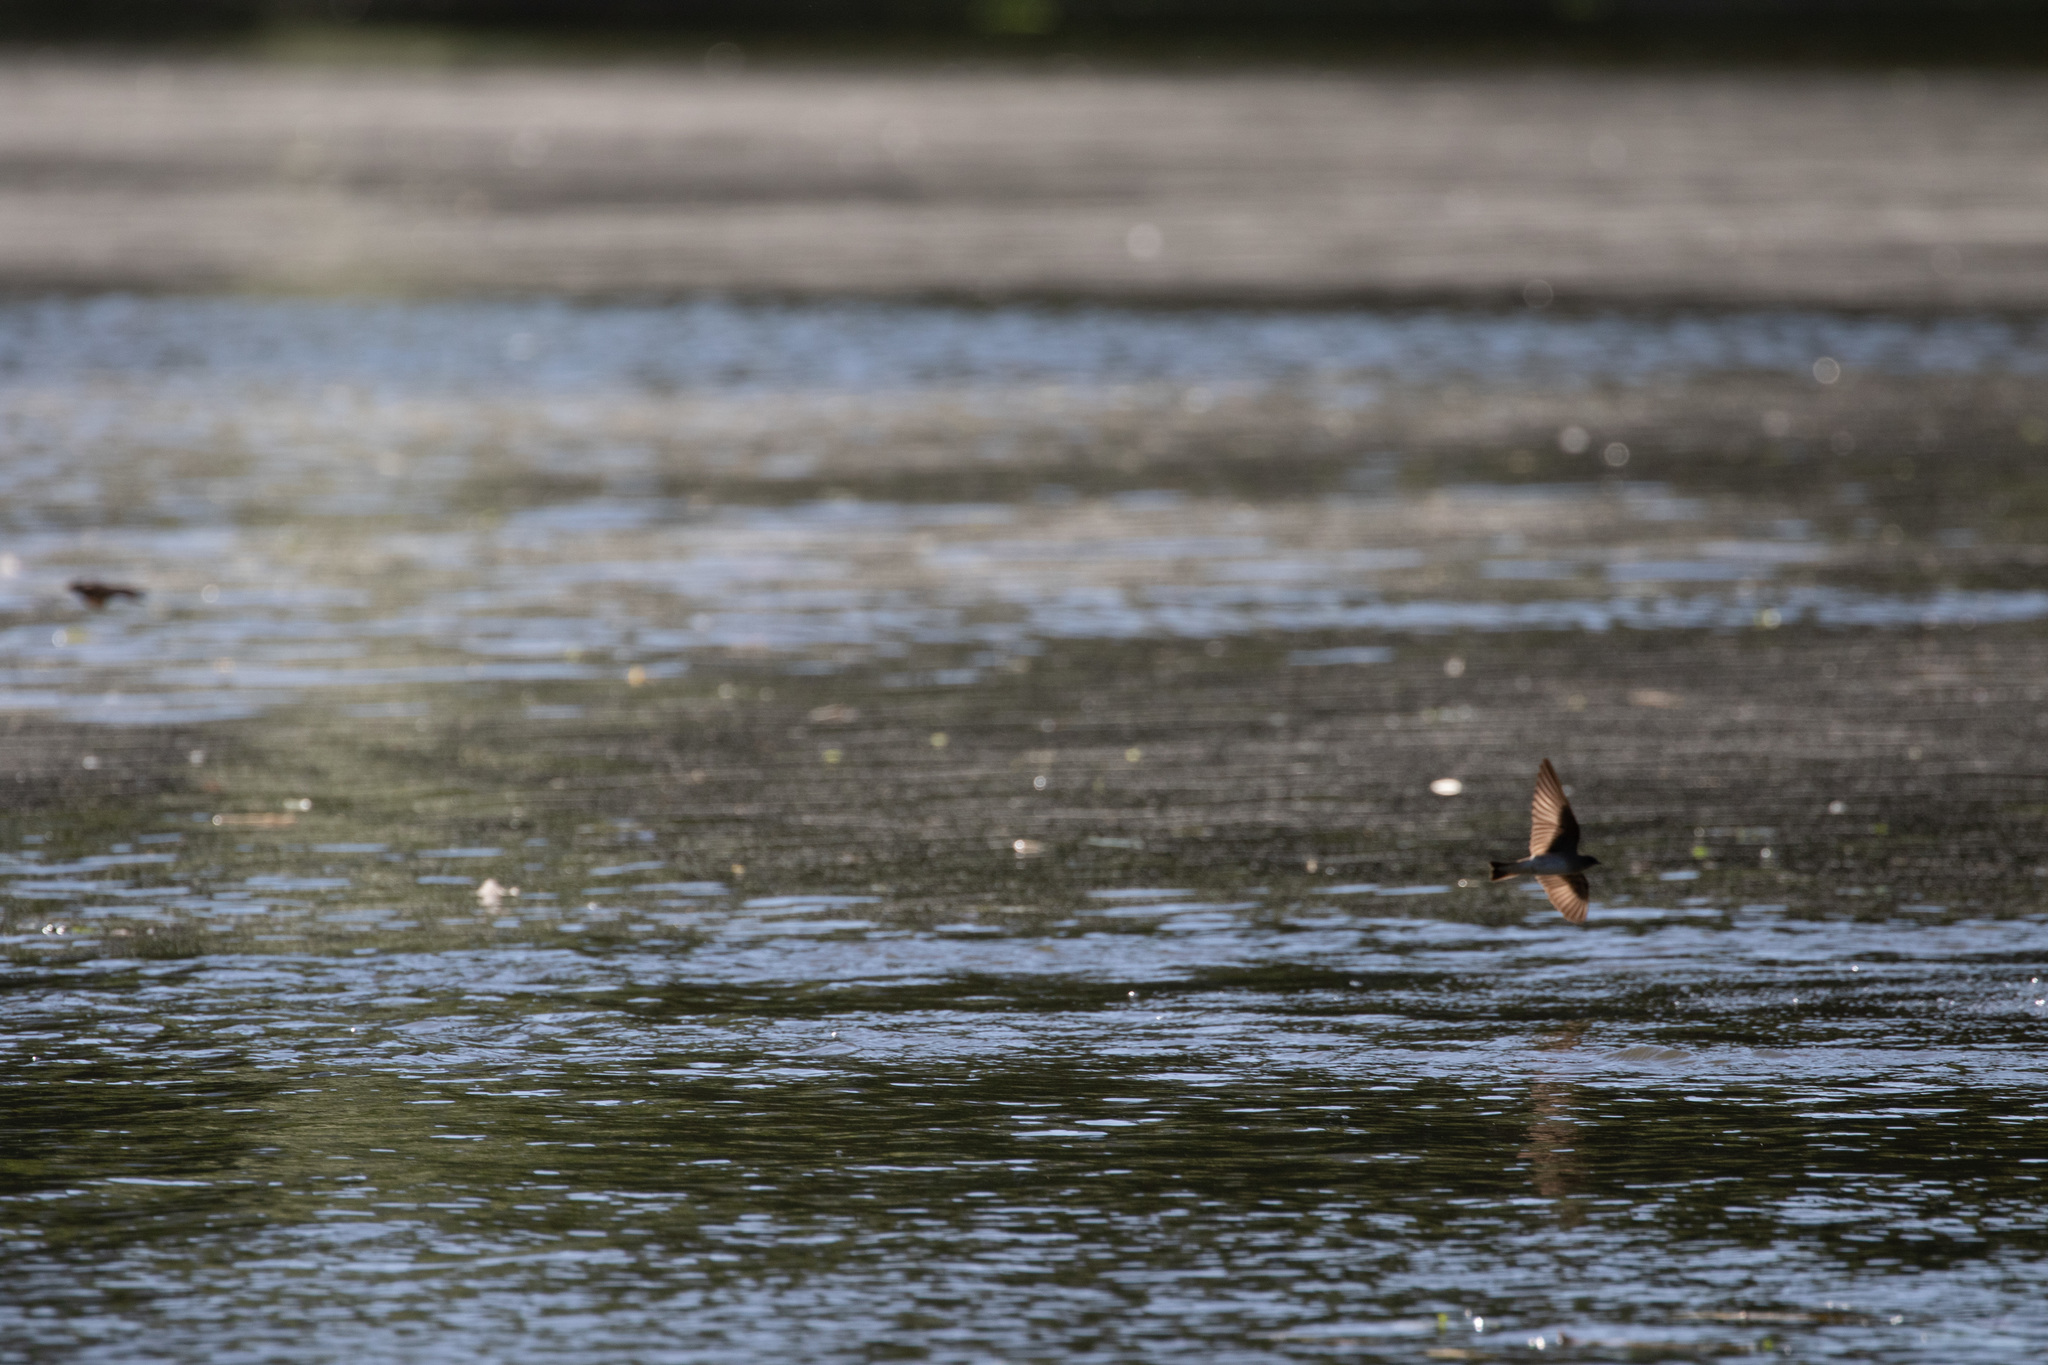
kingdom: Animalia
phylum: Chordata
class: Aves
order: Passeriformes
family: Hirundinidae
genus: Stelgidopteryx
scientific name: Stelgidopteryx serripennis
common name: Northern rough-winged swallow
